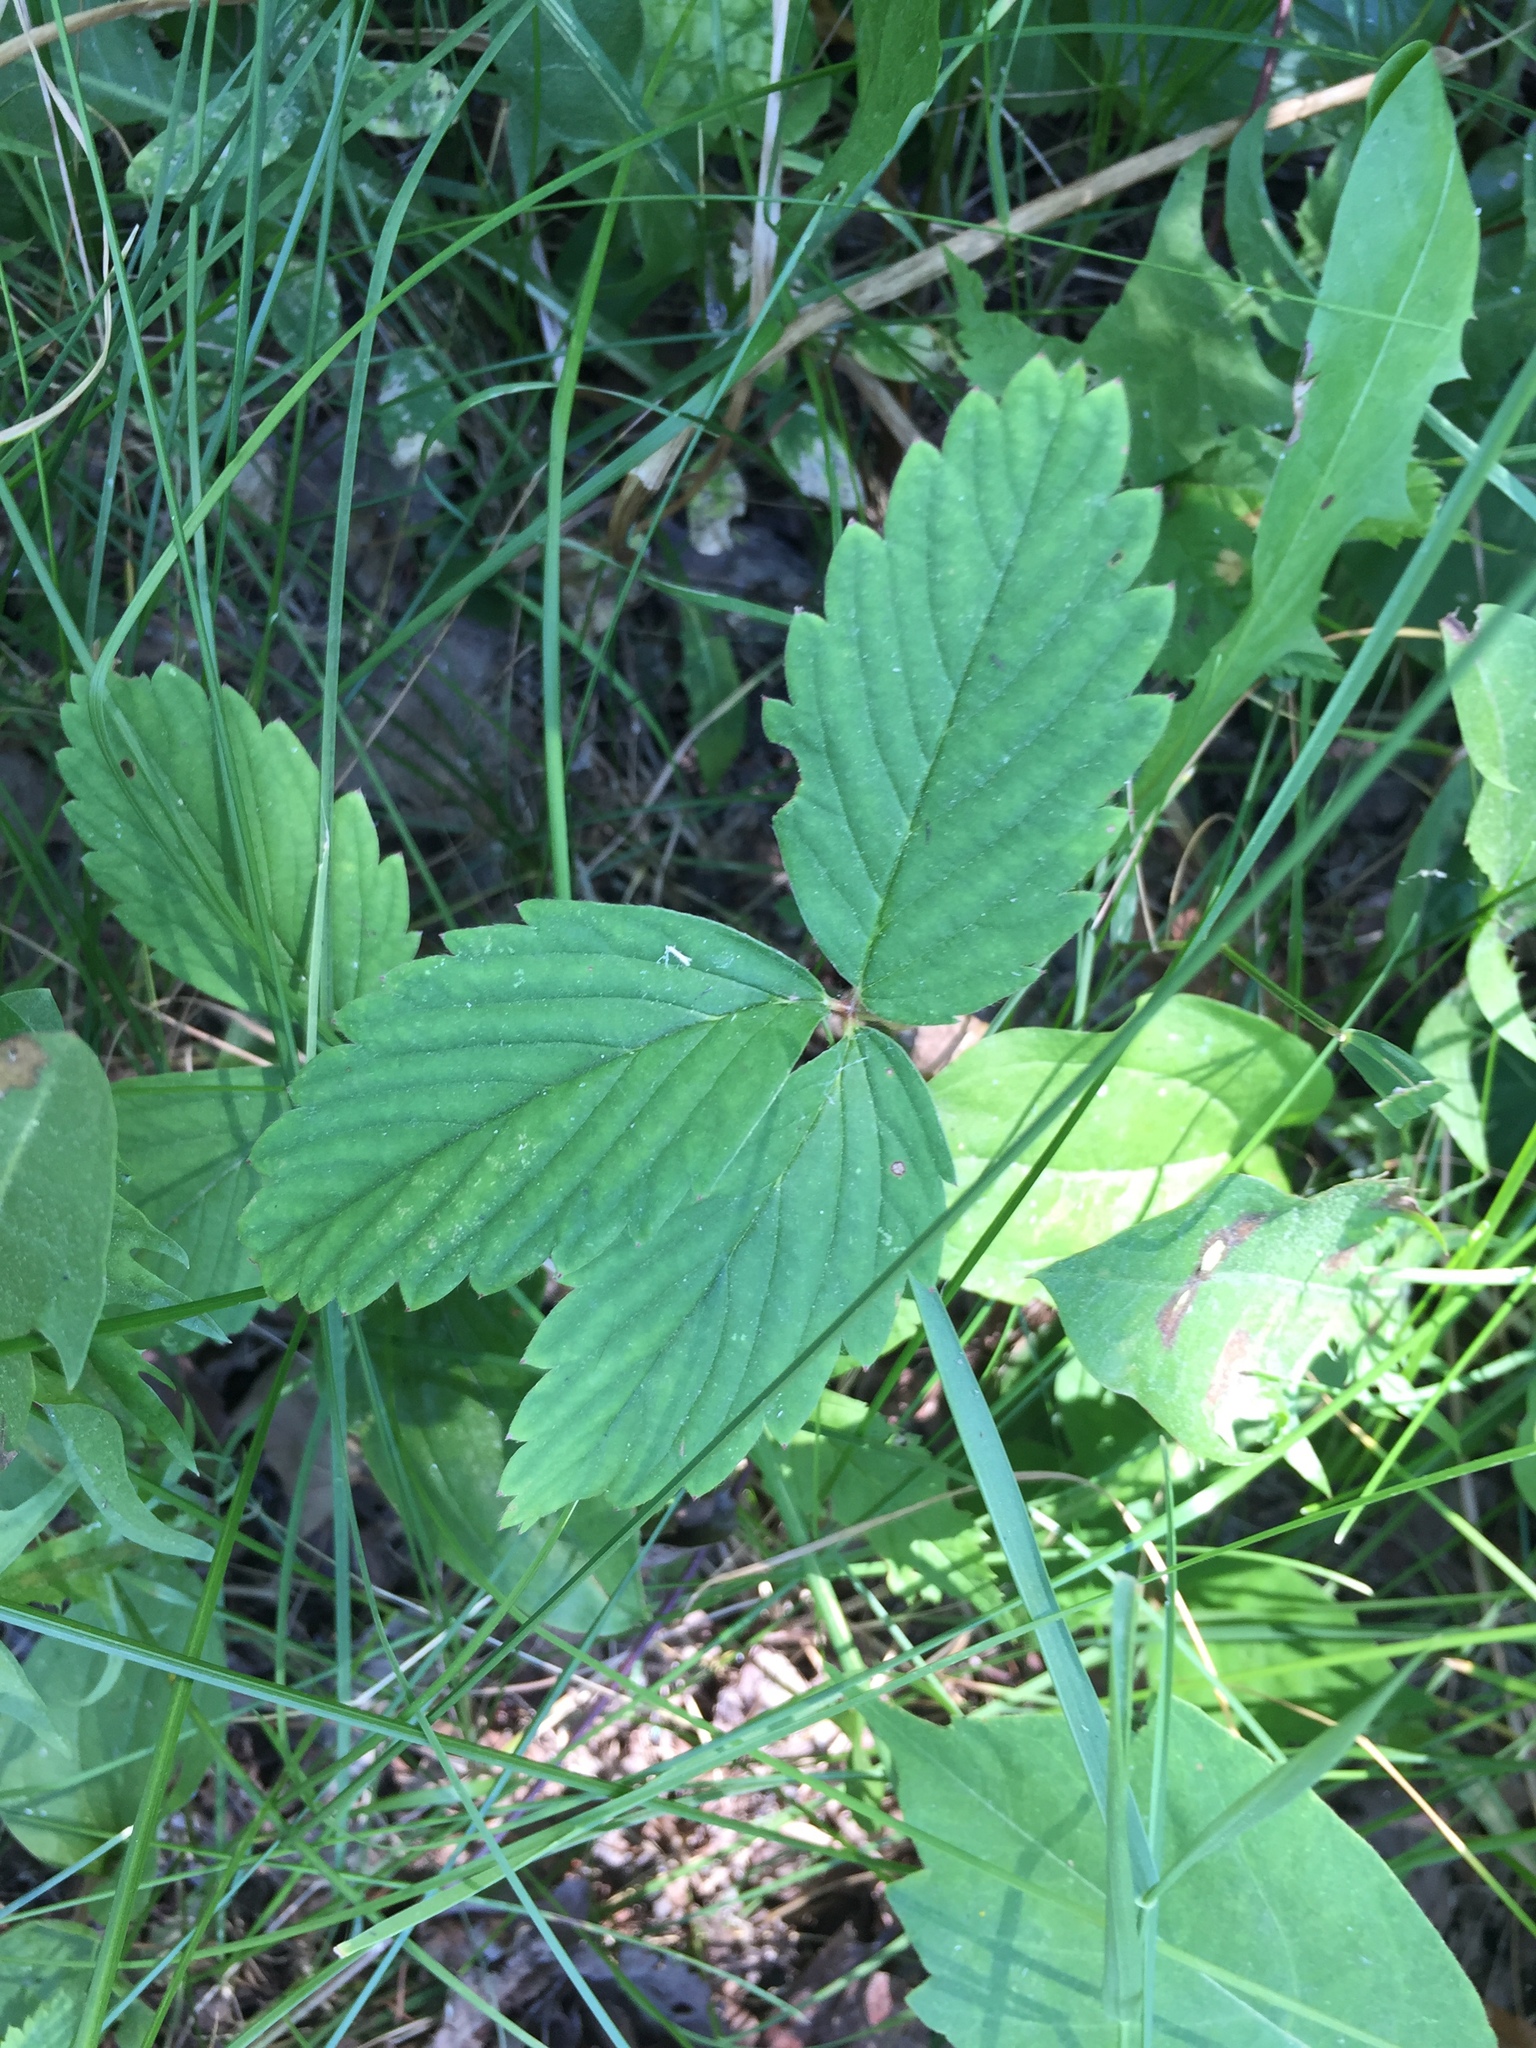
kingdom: Plantae
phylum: Tracheophyta
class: Magnoliopsida
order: Rosales
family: Rosaceae
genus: Fragaria
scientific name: Fragaria virginiana
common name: Thickleaved wild strawberry
